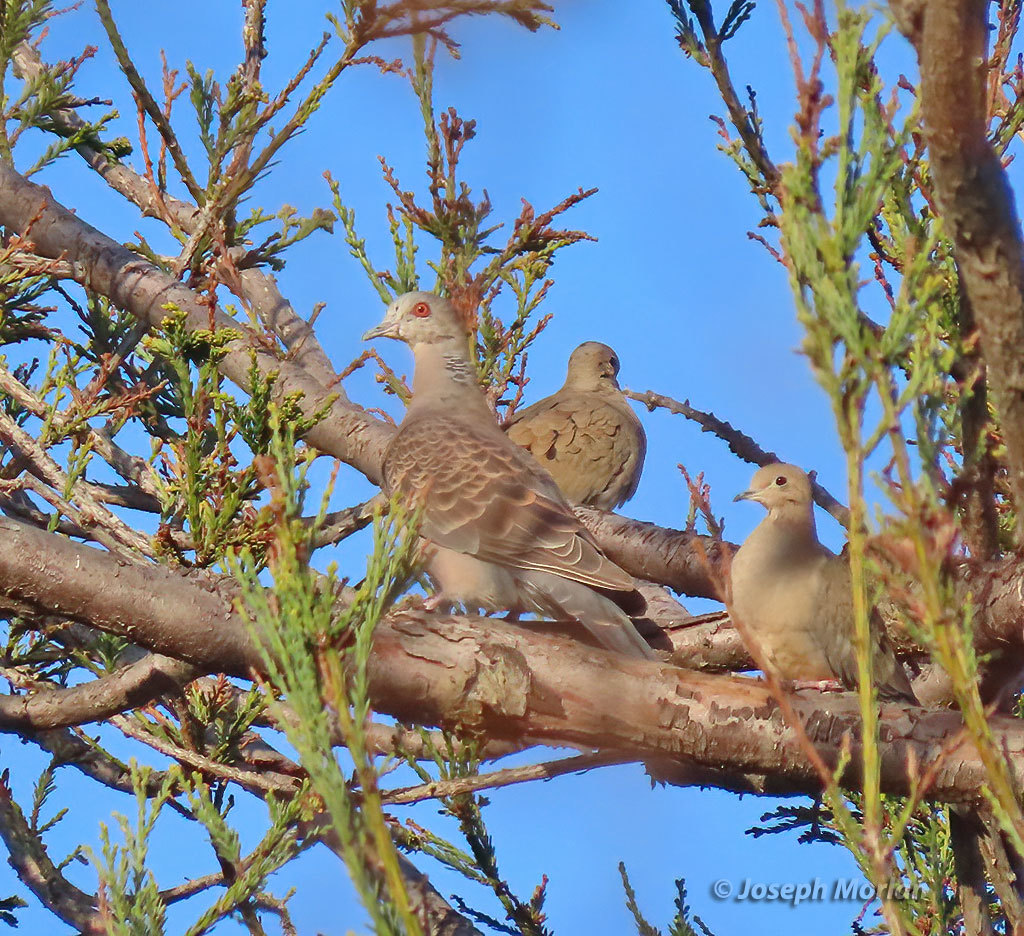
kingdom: Animalia
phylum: Chordata
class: Aves
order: Columbiformes
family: Columbidae
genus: Streptopelia
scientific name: Streptopelia orientalis
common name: Oriental turtle dove
